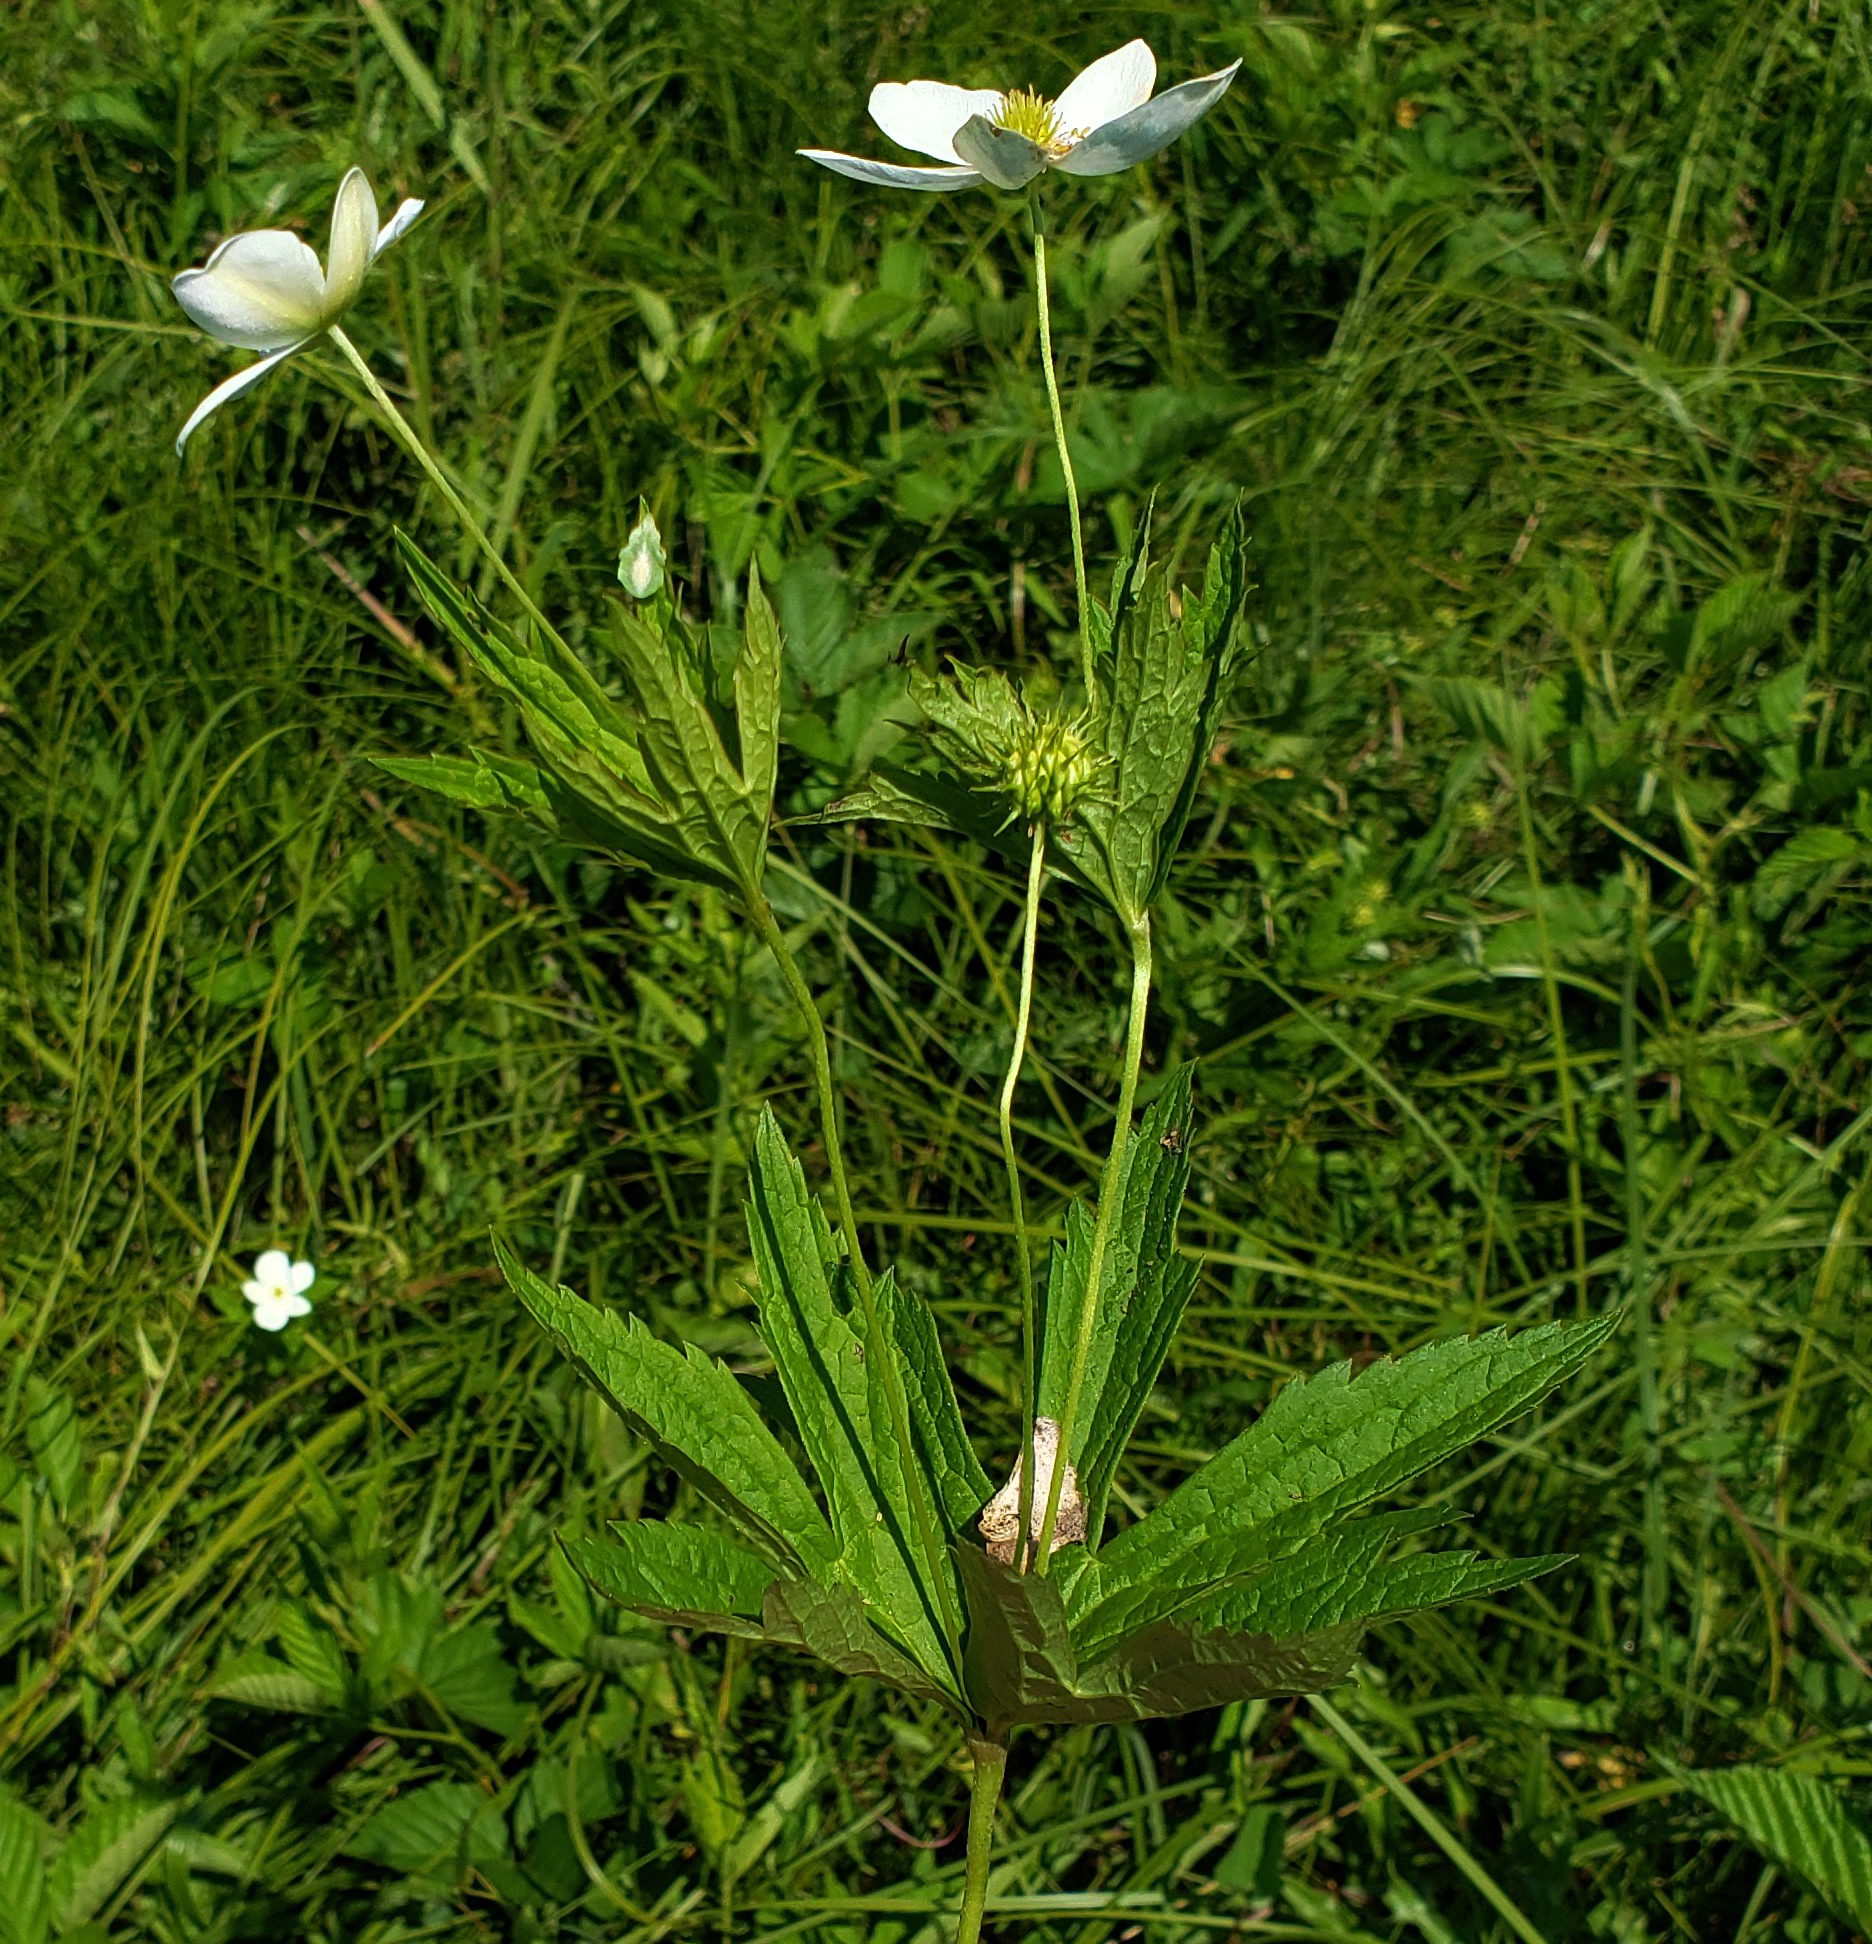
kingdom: Plantae
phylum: Tracheophyta
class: Magnoliopsida
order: Ranunculales
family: Ranunculaceae
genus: Anemonastrum
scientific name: Anemonastrum canadense
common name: Canada anemone
